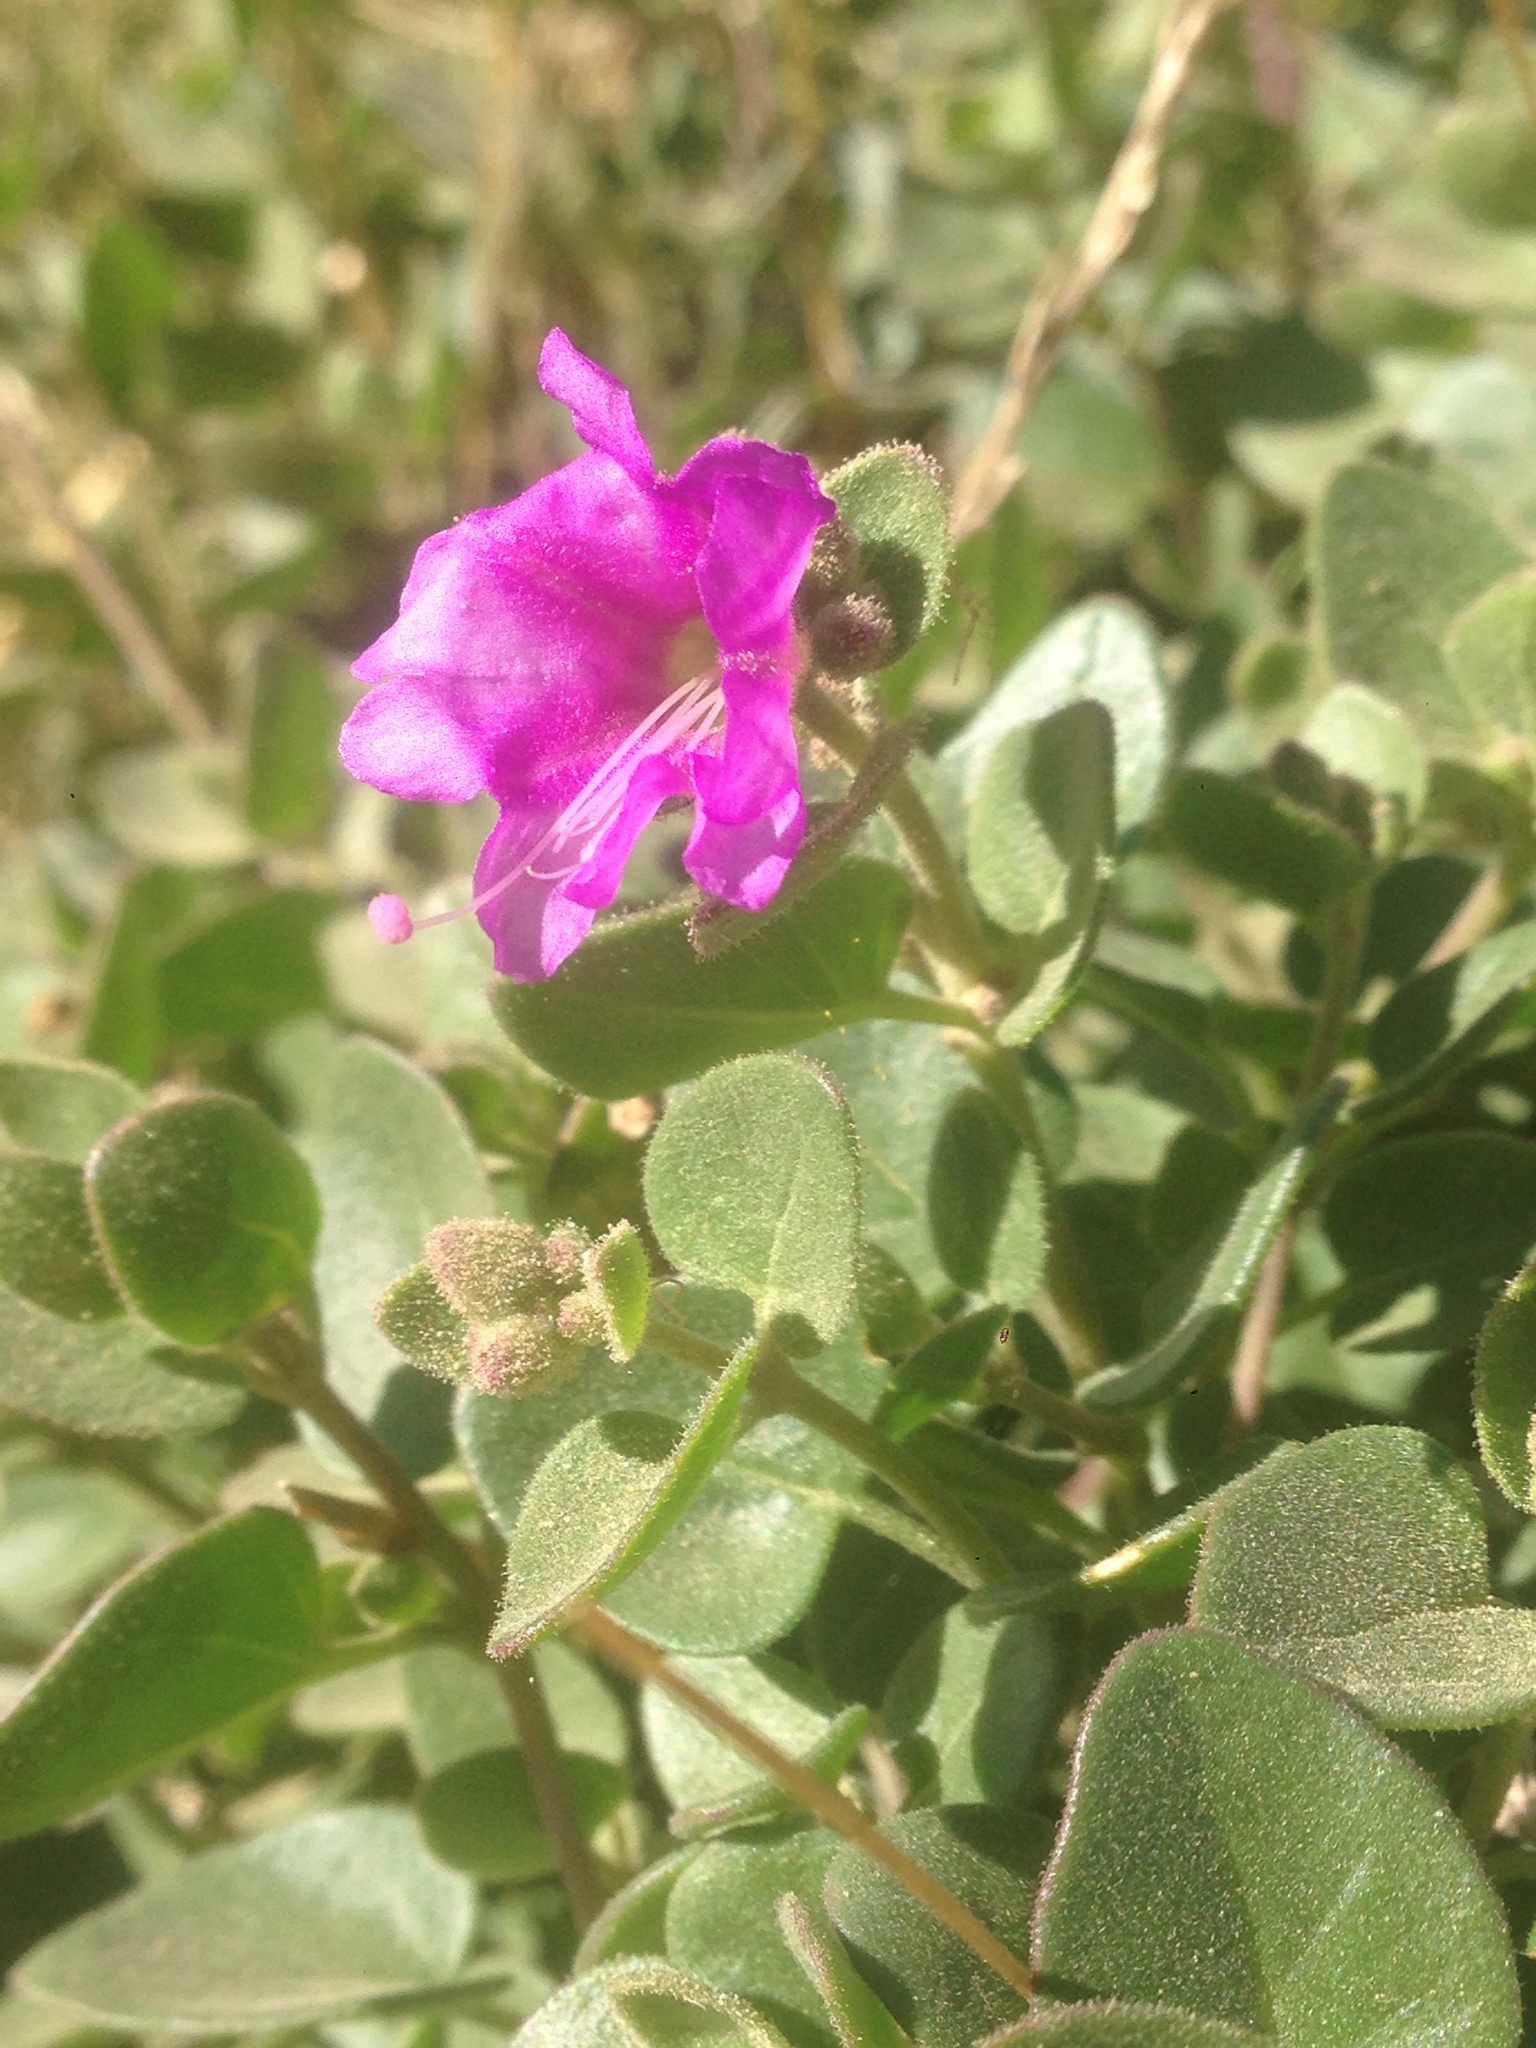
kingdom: Plantae
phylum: Tracheophyta
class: Magnoliopsida
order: Caryophyllales
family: Nyctaginaceae
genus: Mirabilis
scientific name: Mirabilis laevis
